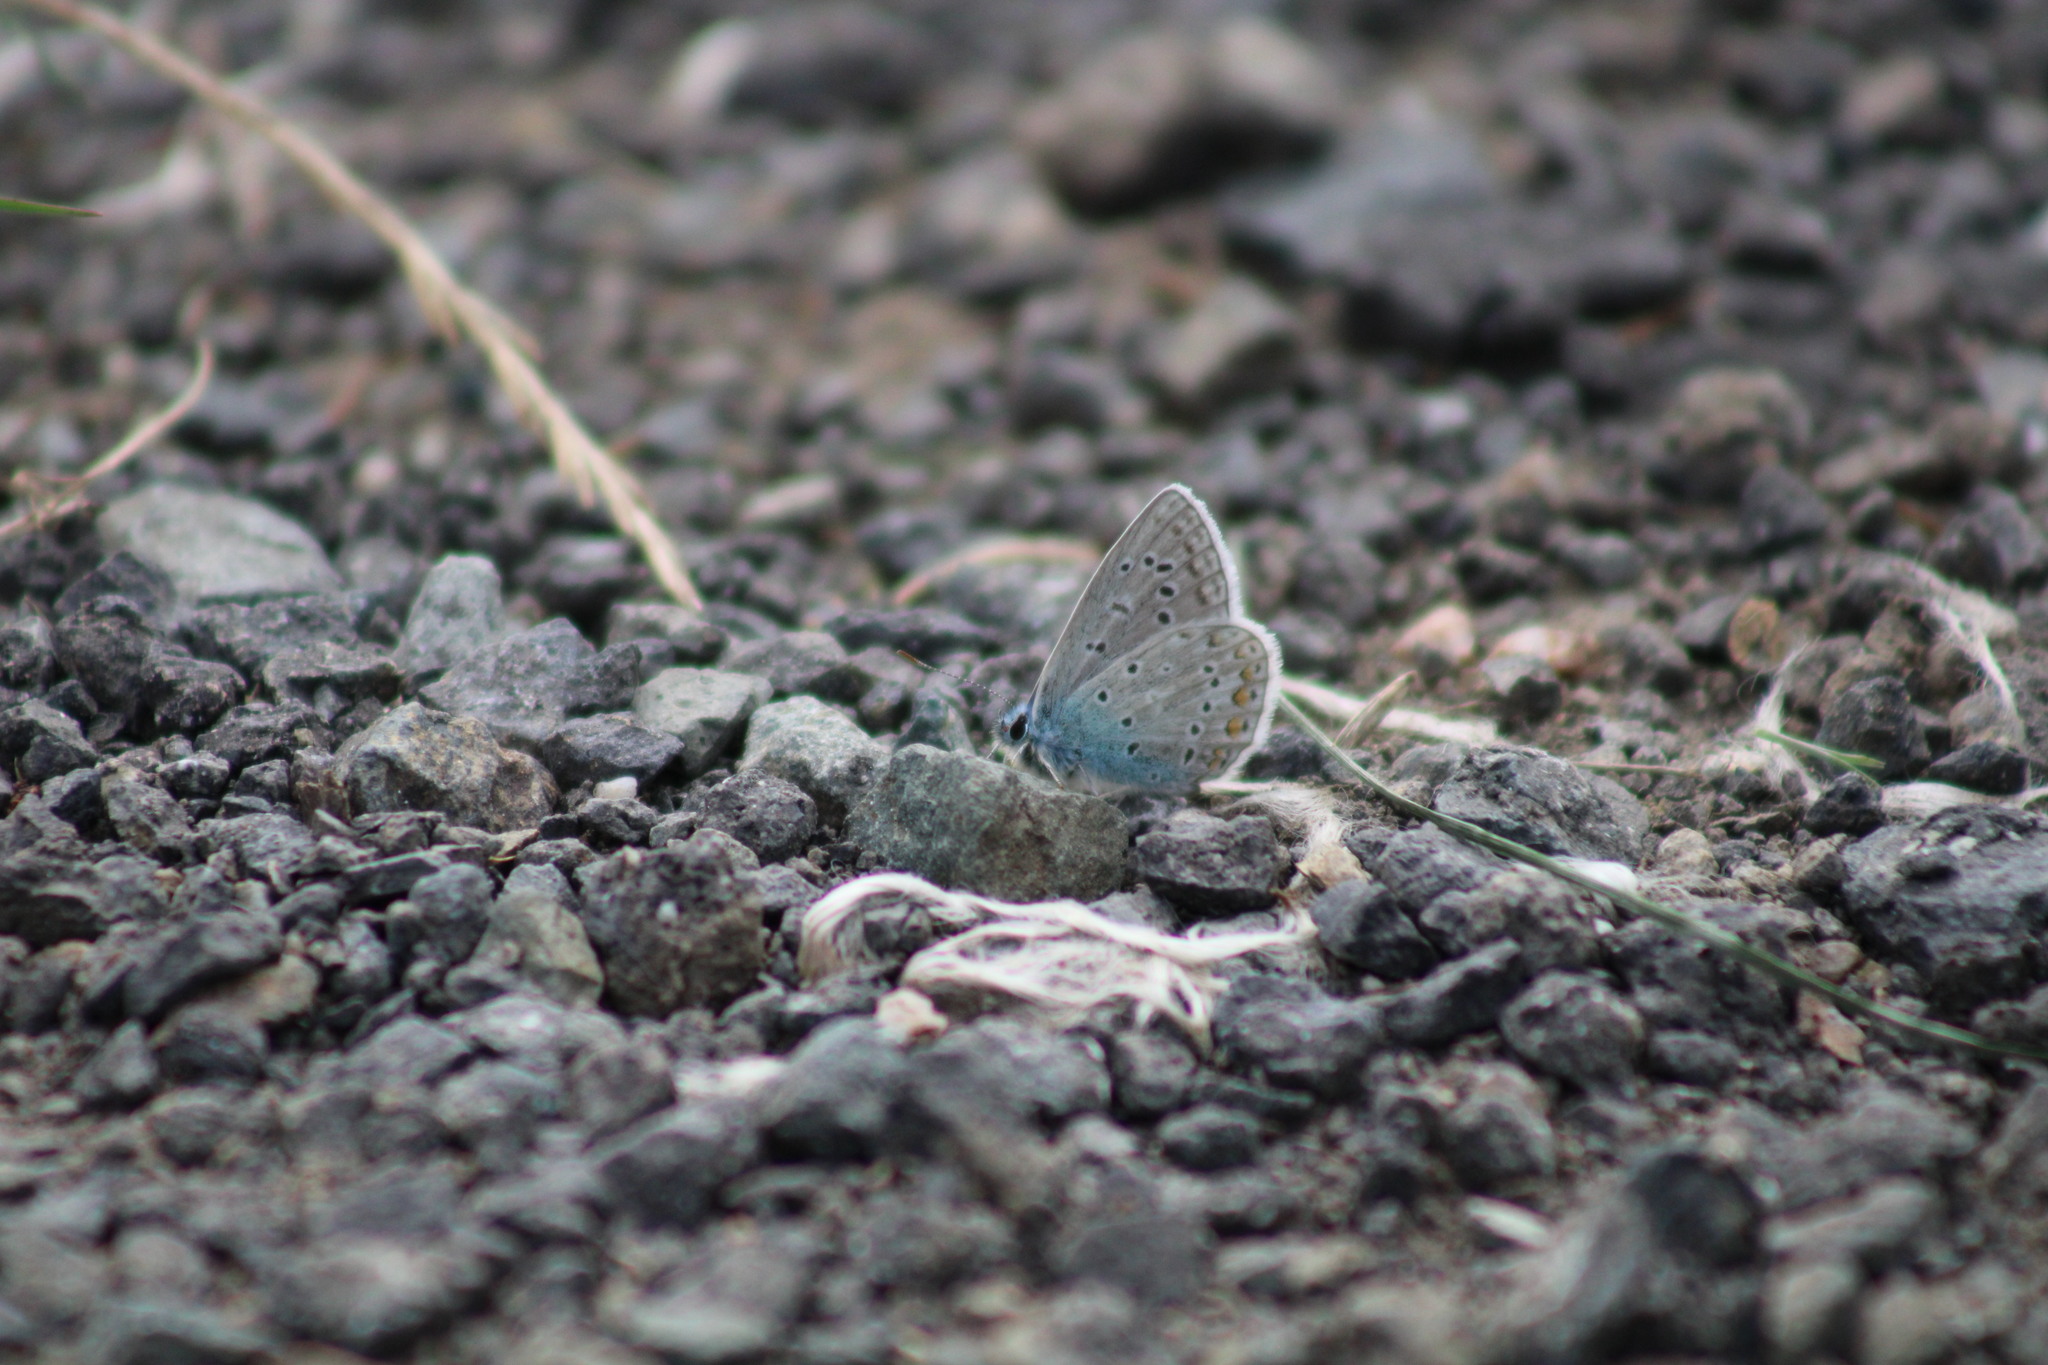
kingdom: Animalia
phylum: Arthropoda
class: Insecta
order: Lepidoptera
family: Lycaenidae
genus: Polyommatus
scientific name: Polyommatus icarus
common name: Common blue
